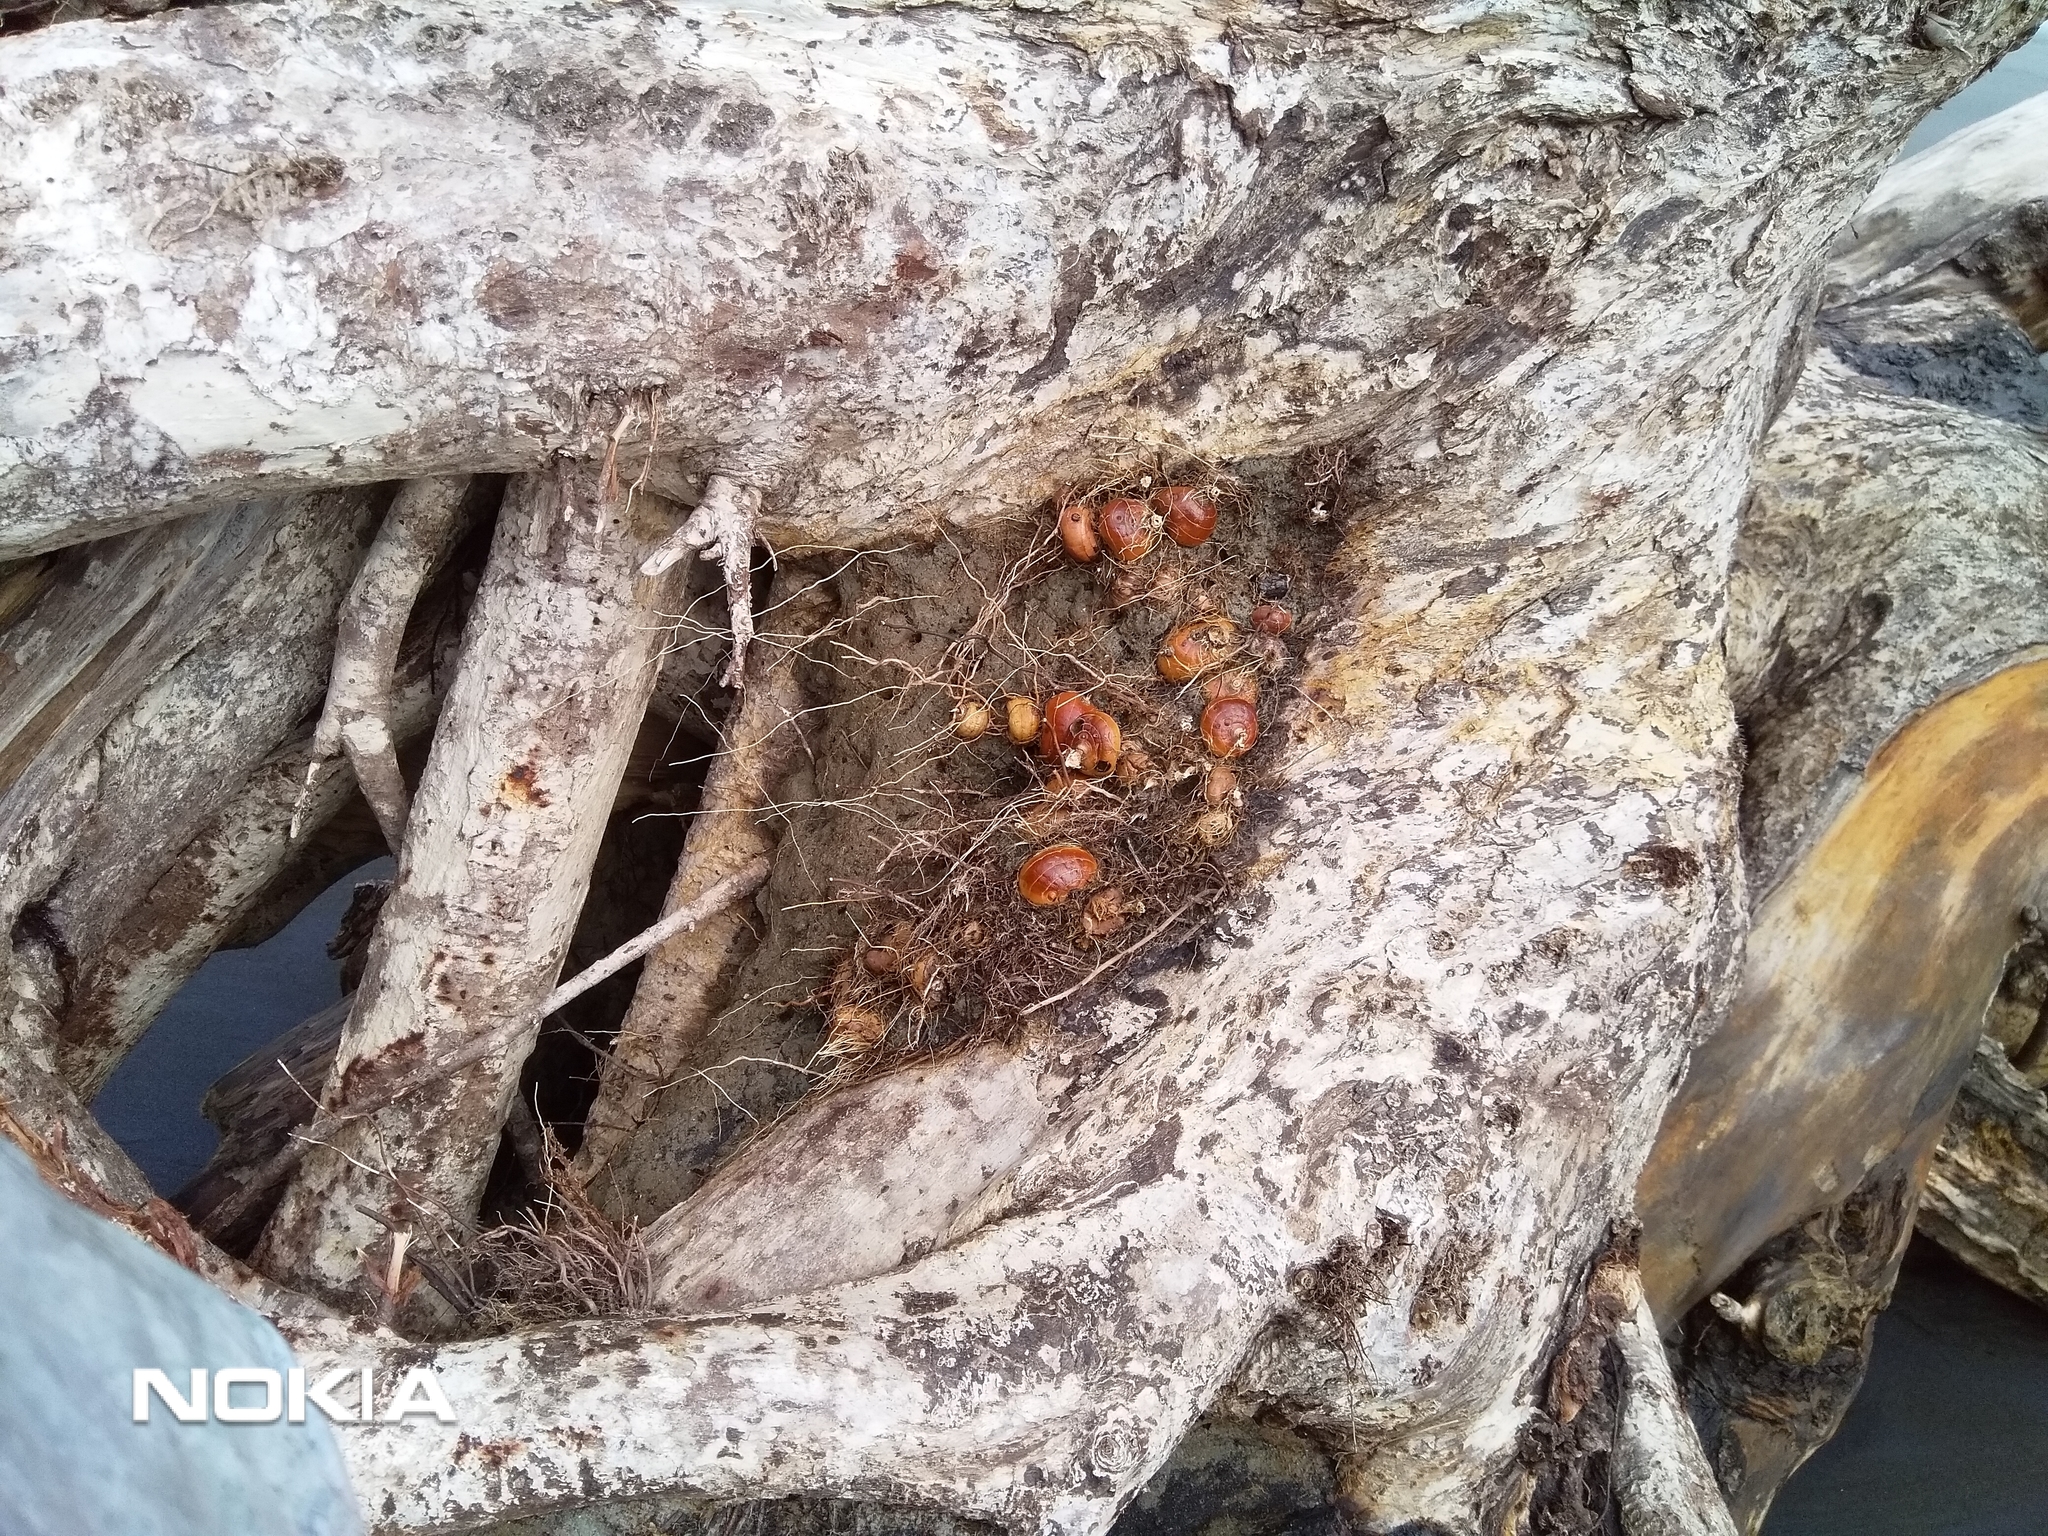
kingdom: Plantae
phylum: Tracheophyta
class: Liliopsida
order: Asparagales
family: Iridaceae
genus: Crocosmia
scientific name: Crocosmia crocosmiiflora
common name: Montbretia
